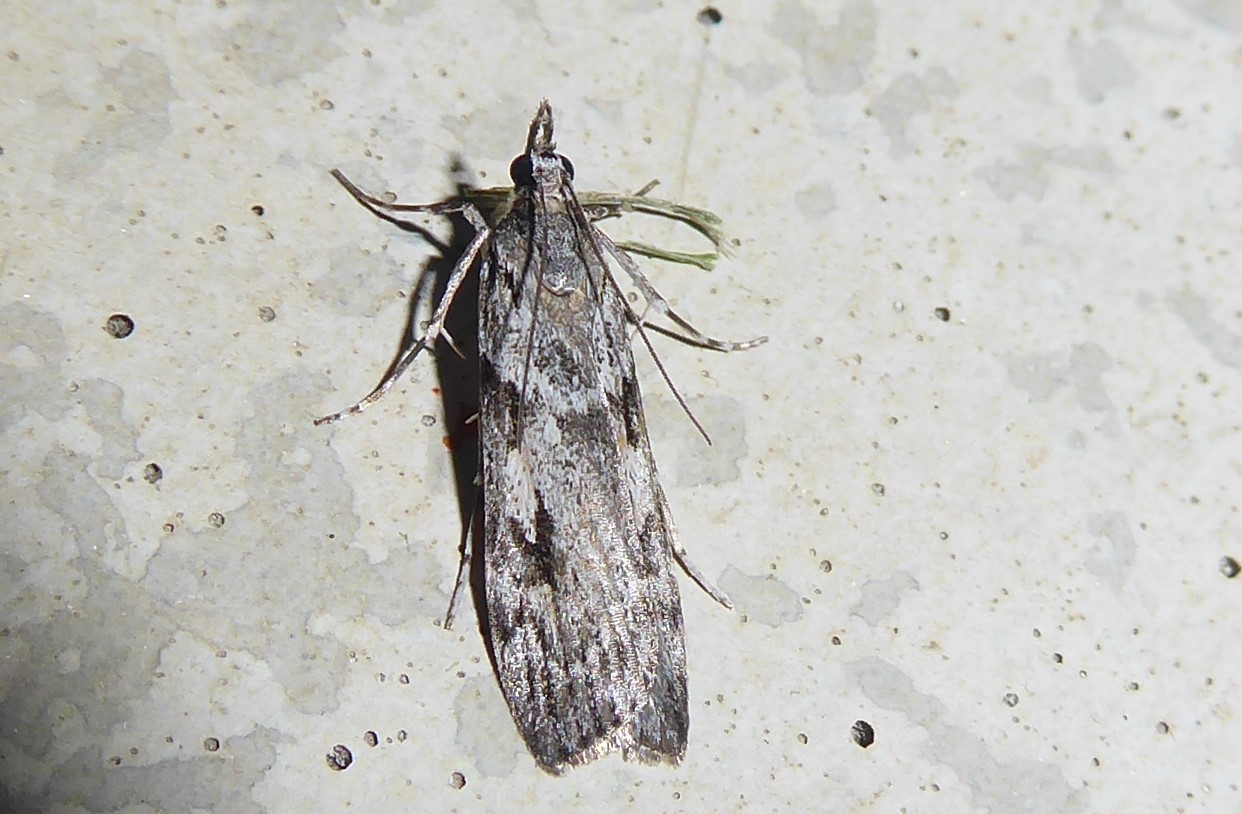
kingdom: Animalia
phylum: Arthropoda
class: Insecta
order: Lepidoptera
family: Crambidae
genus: Scoparia
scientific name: Scoparia halopis
